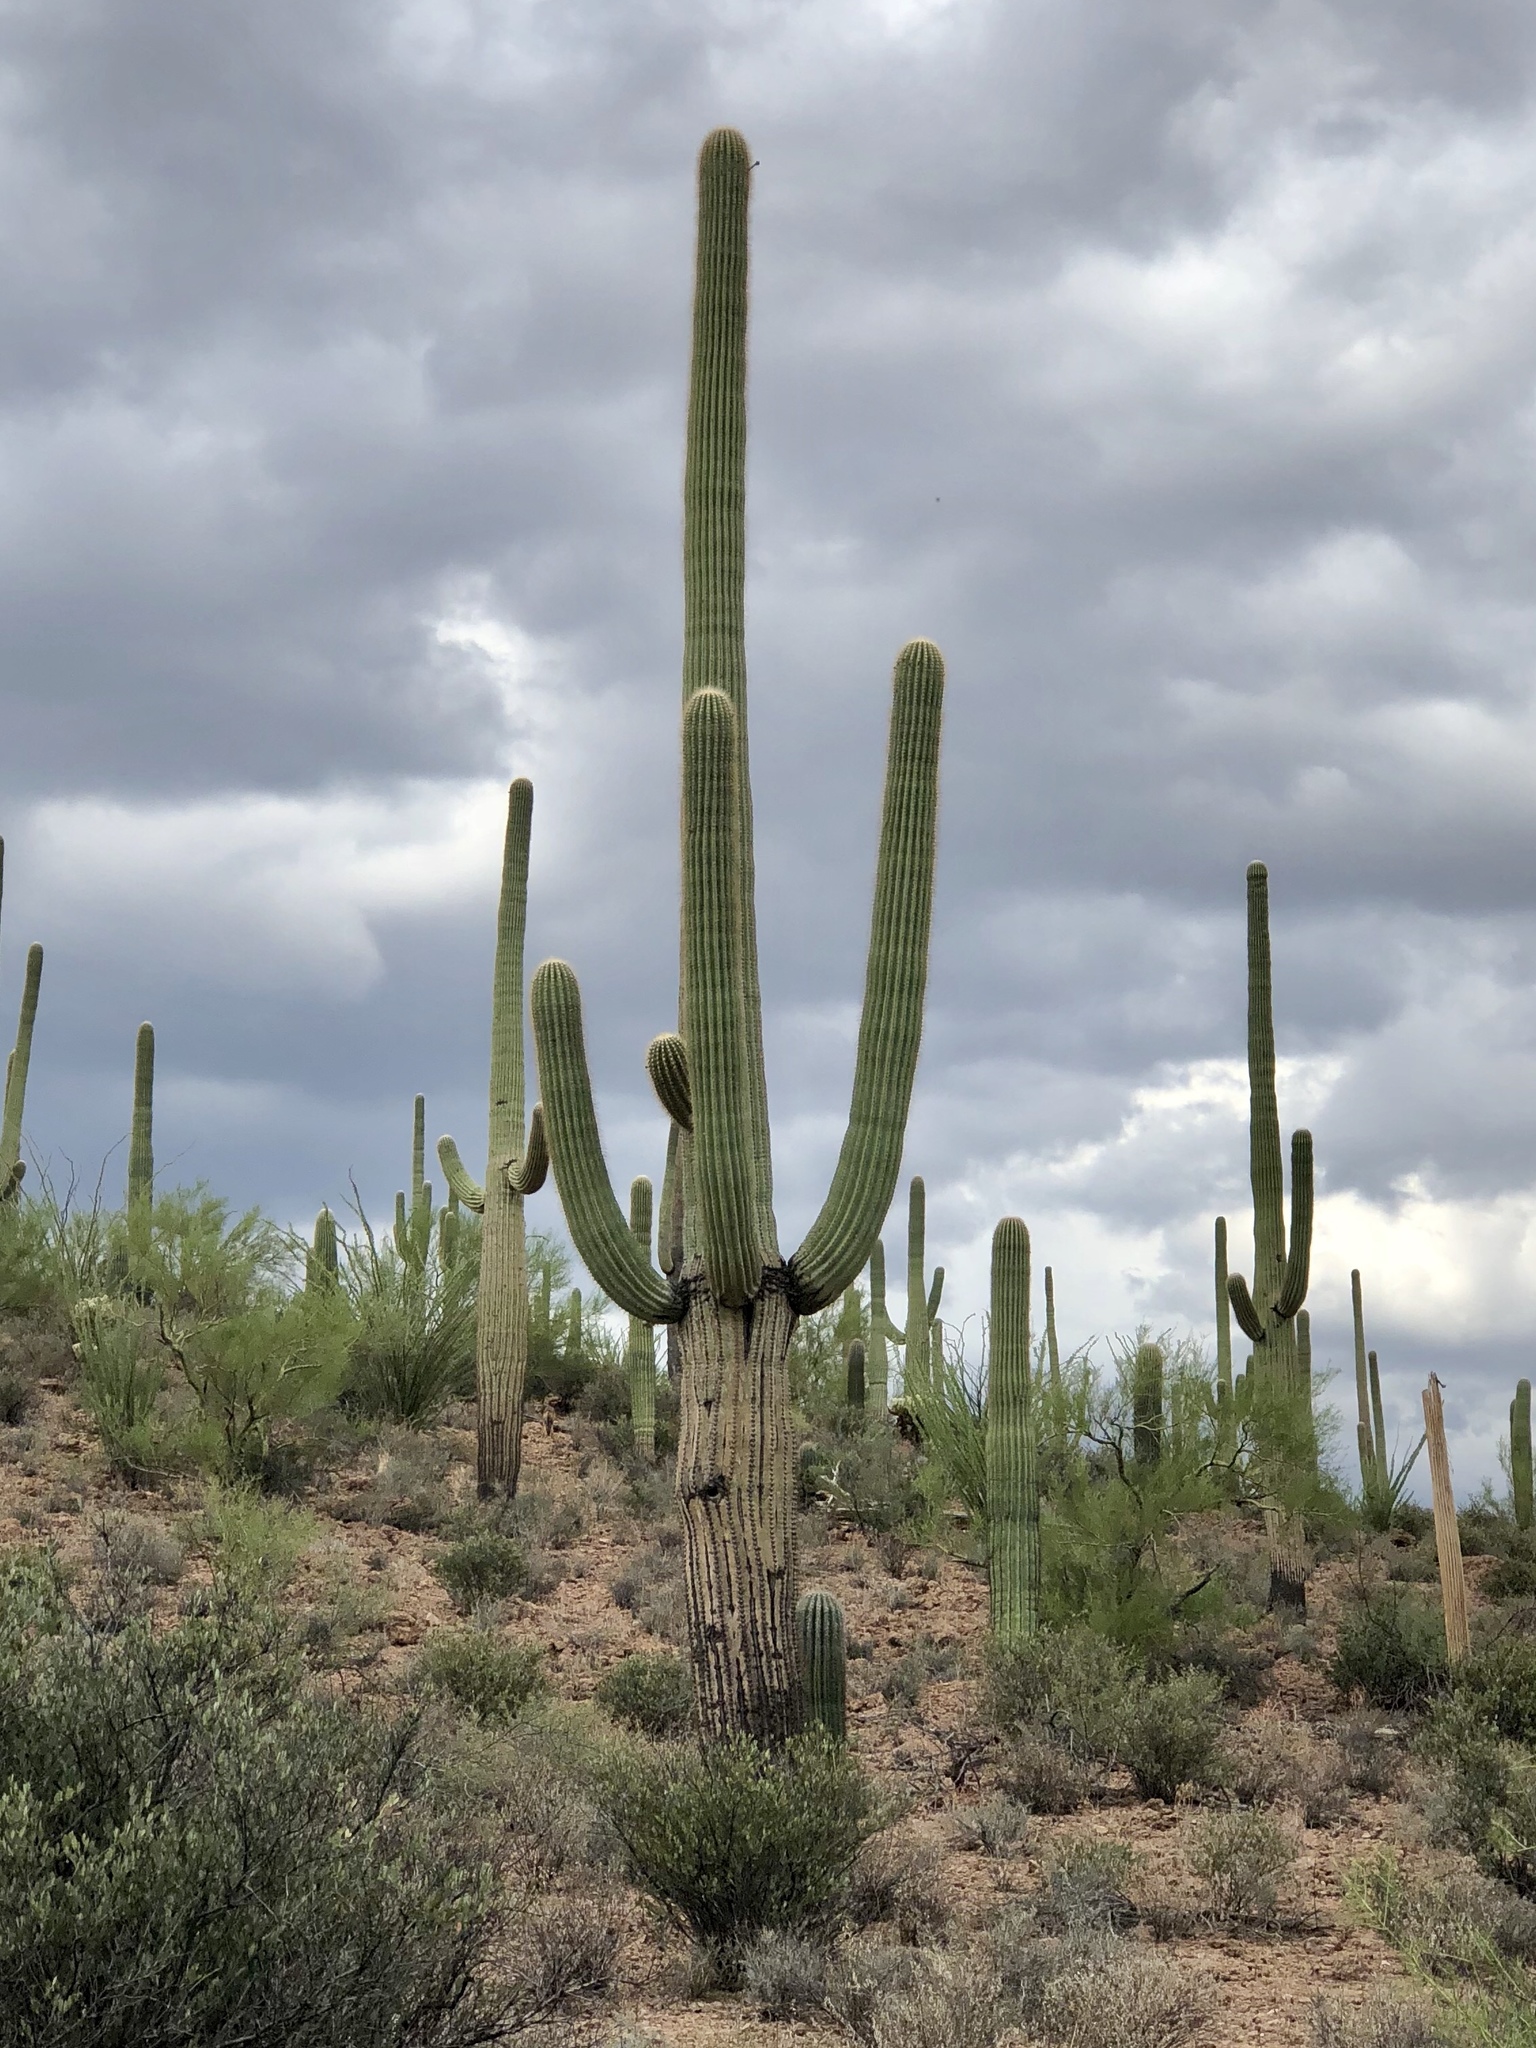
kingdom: Plantae
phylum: Tracheophyta
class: Magnoliopsida
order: Caryophyllales
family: Cactaceae
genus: Carnegiea
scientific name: Carnegiea gigantea
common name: Saguaro
